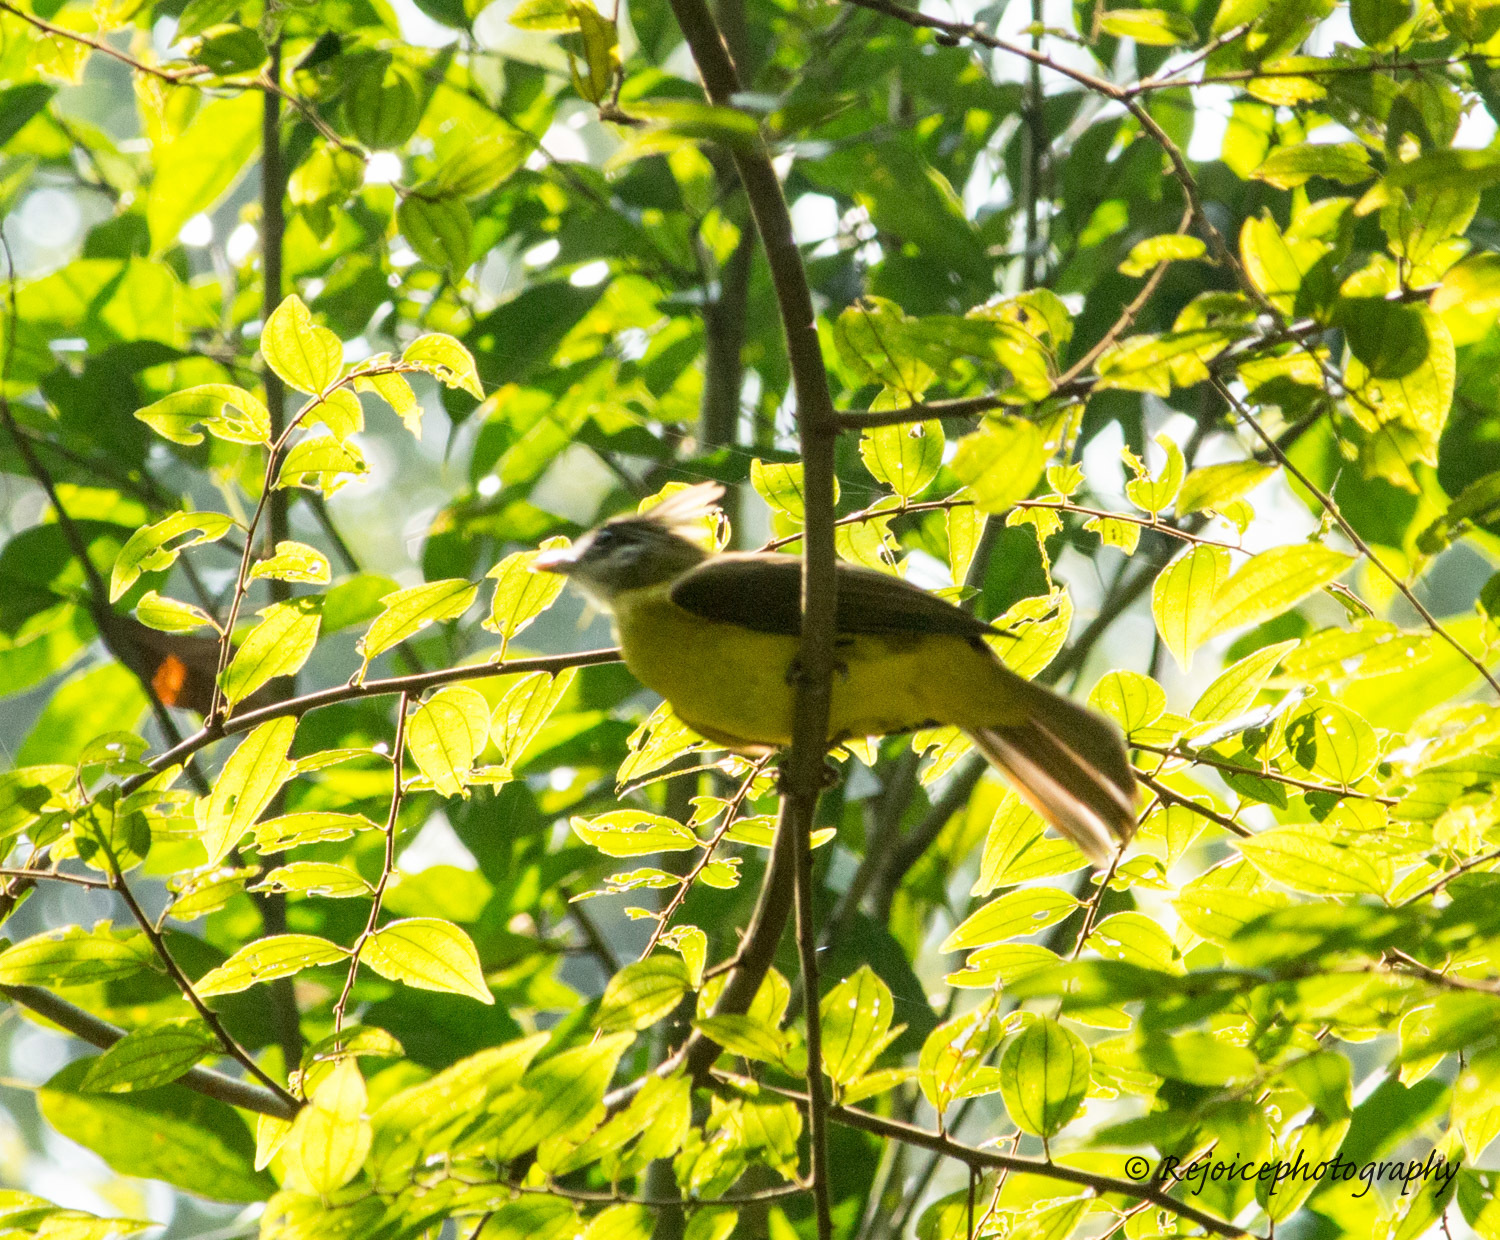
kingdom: Animalia
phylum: Chordata
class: Aves
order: Passeriformes
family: Pycnonotidae
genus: Alophoixus
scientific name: Alophoixus flaveolus
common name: White-throated bulbul
